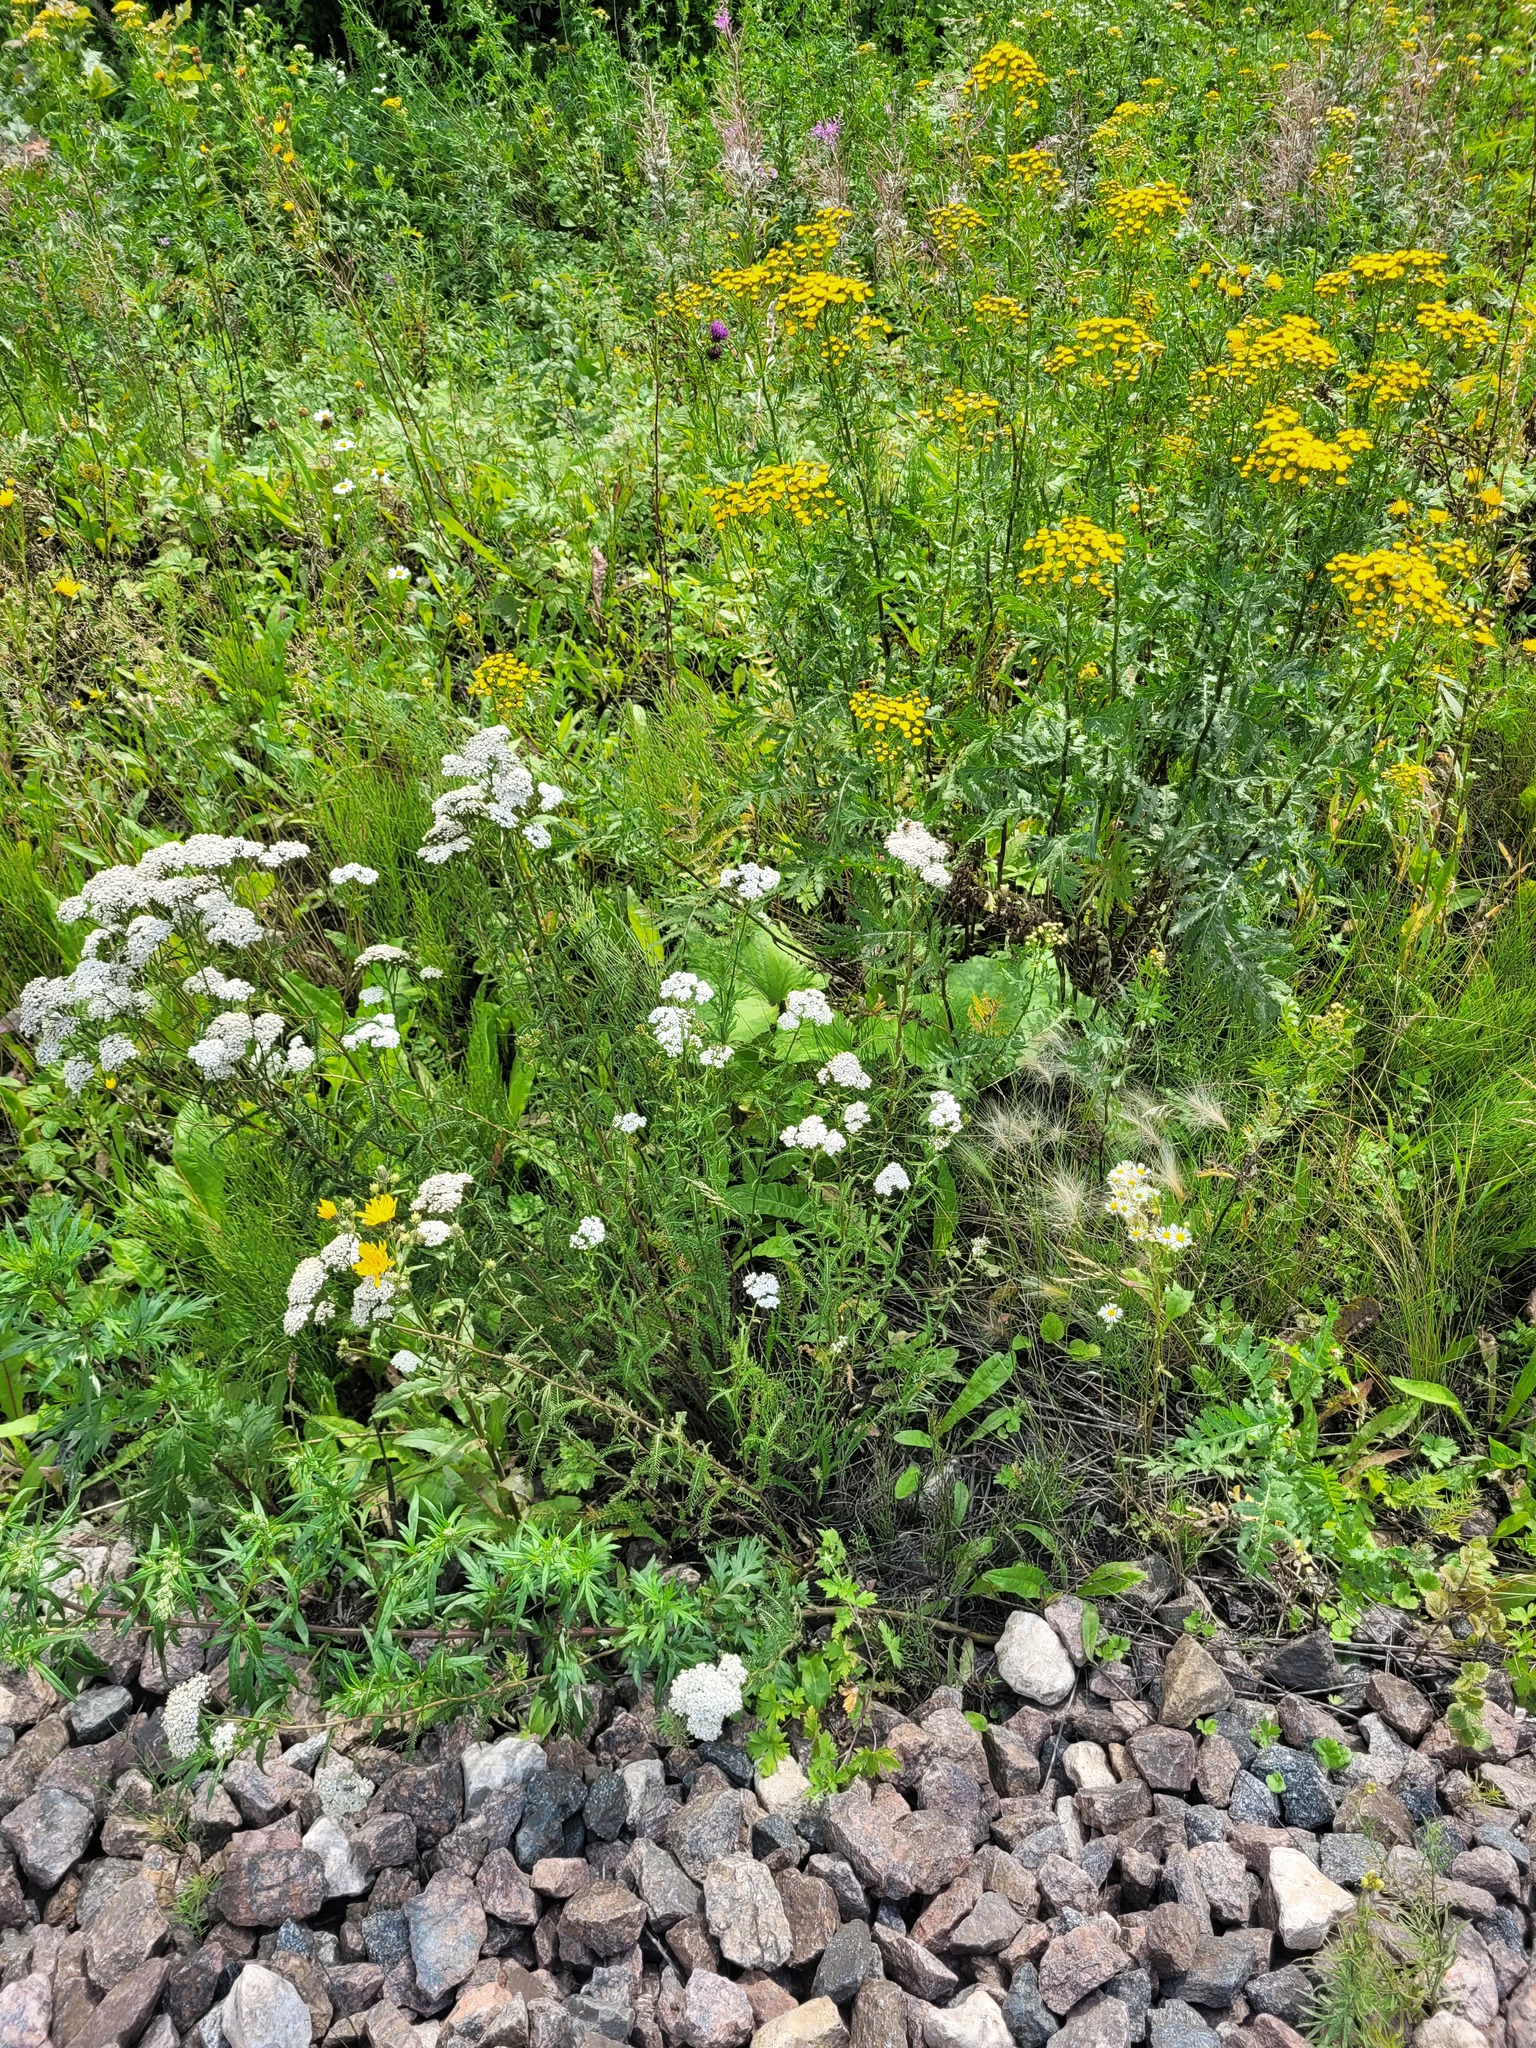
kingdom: Plantae
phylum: Tracheophyta
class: Magnoliopsida
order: Asterales
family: Asteraceae
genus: Achillea
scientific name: Achillea millefolium
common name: Yarrow
